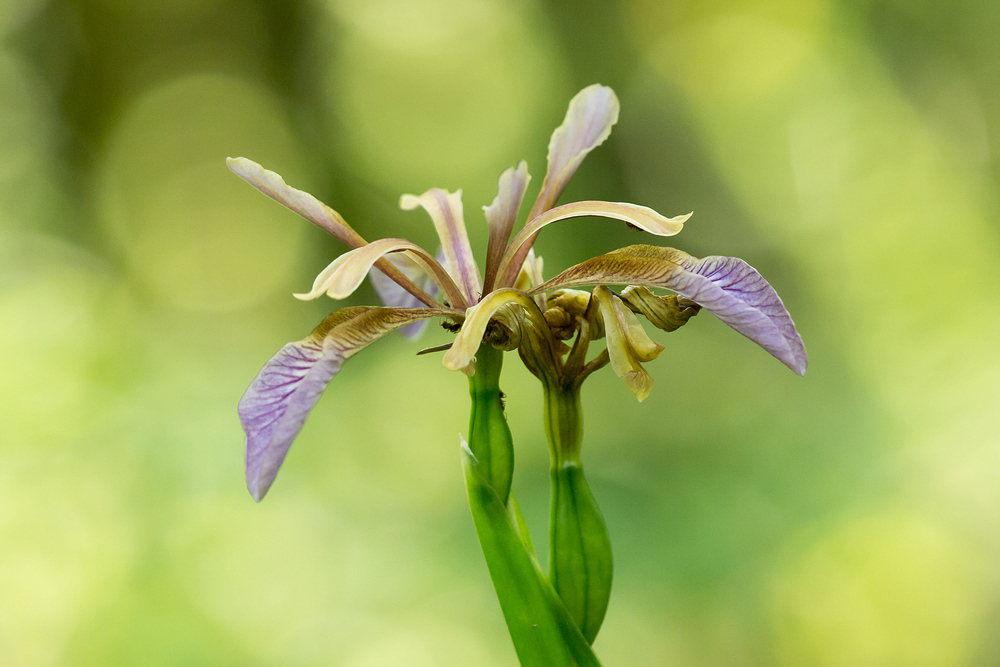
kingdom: Plantae
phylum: Tracheophyta
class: Liliopsida
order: Asparagales
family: Iridaceae
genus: Iris
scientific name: Iris foetidissima
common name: Stinking iris
